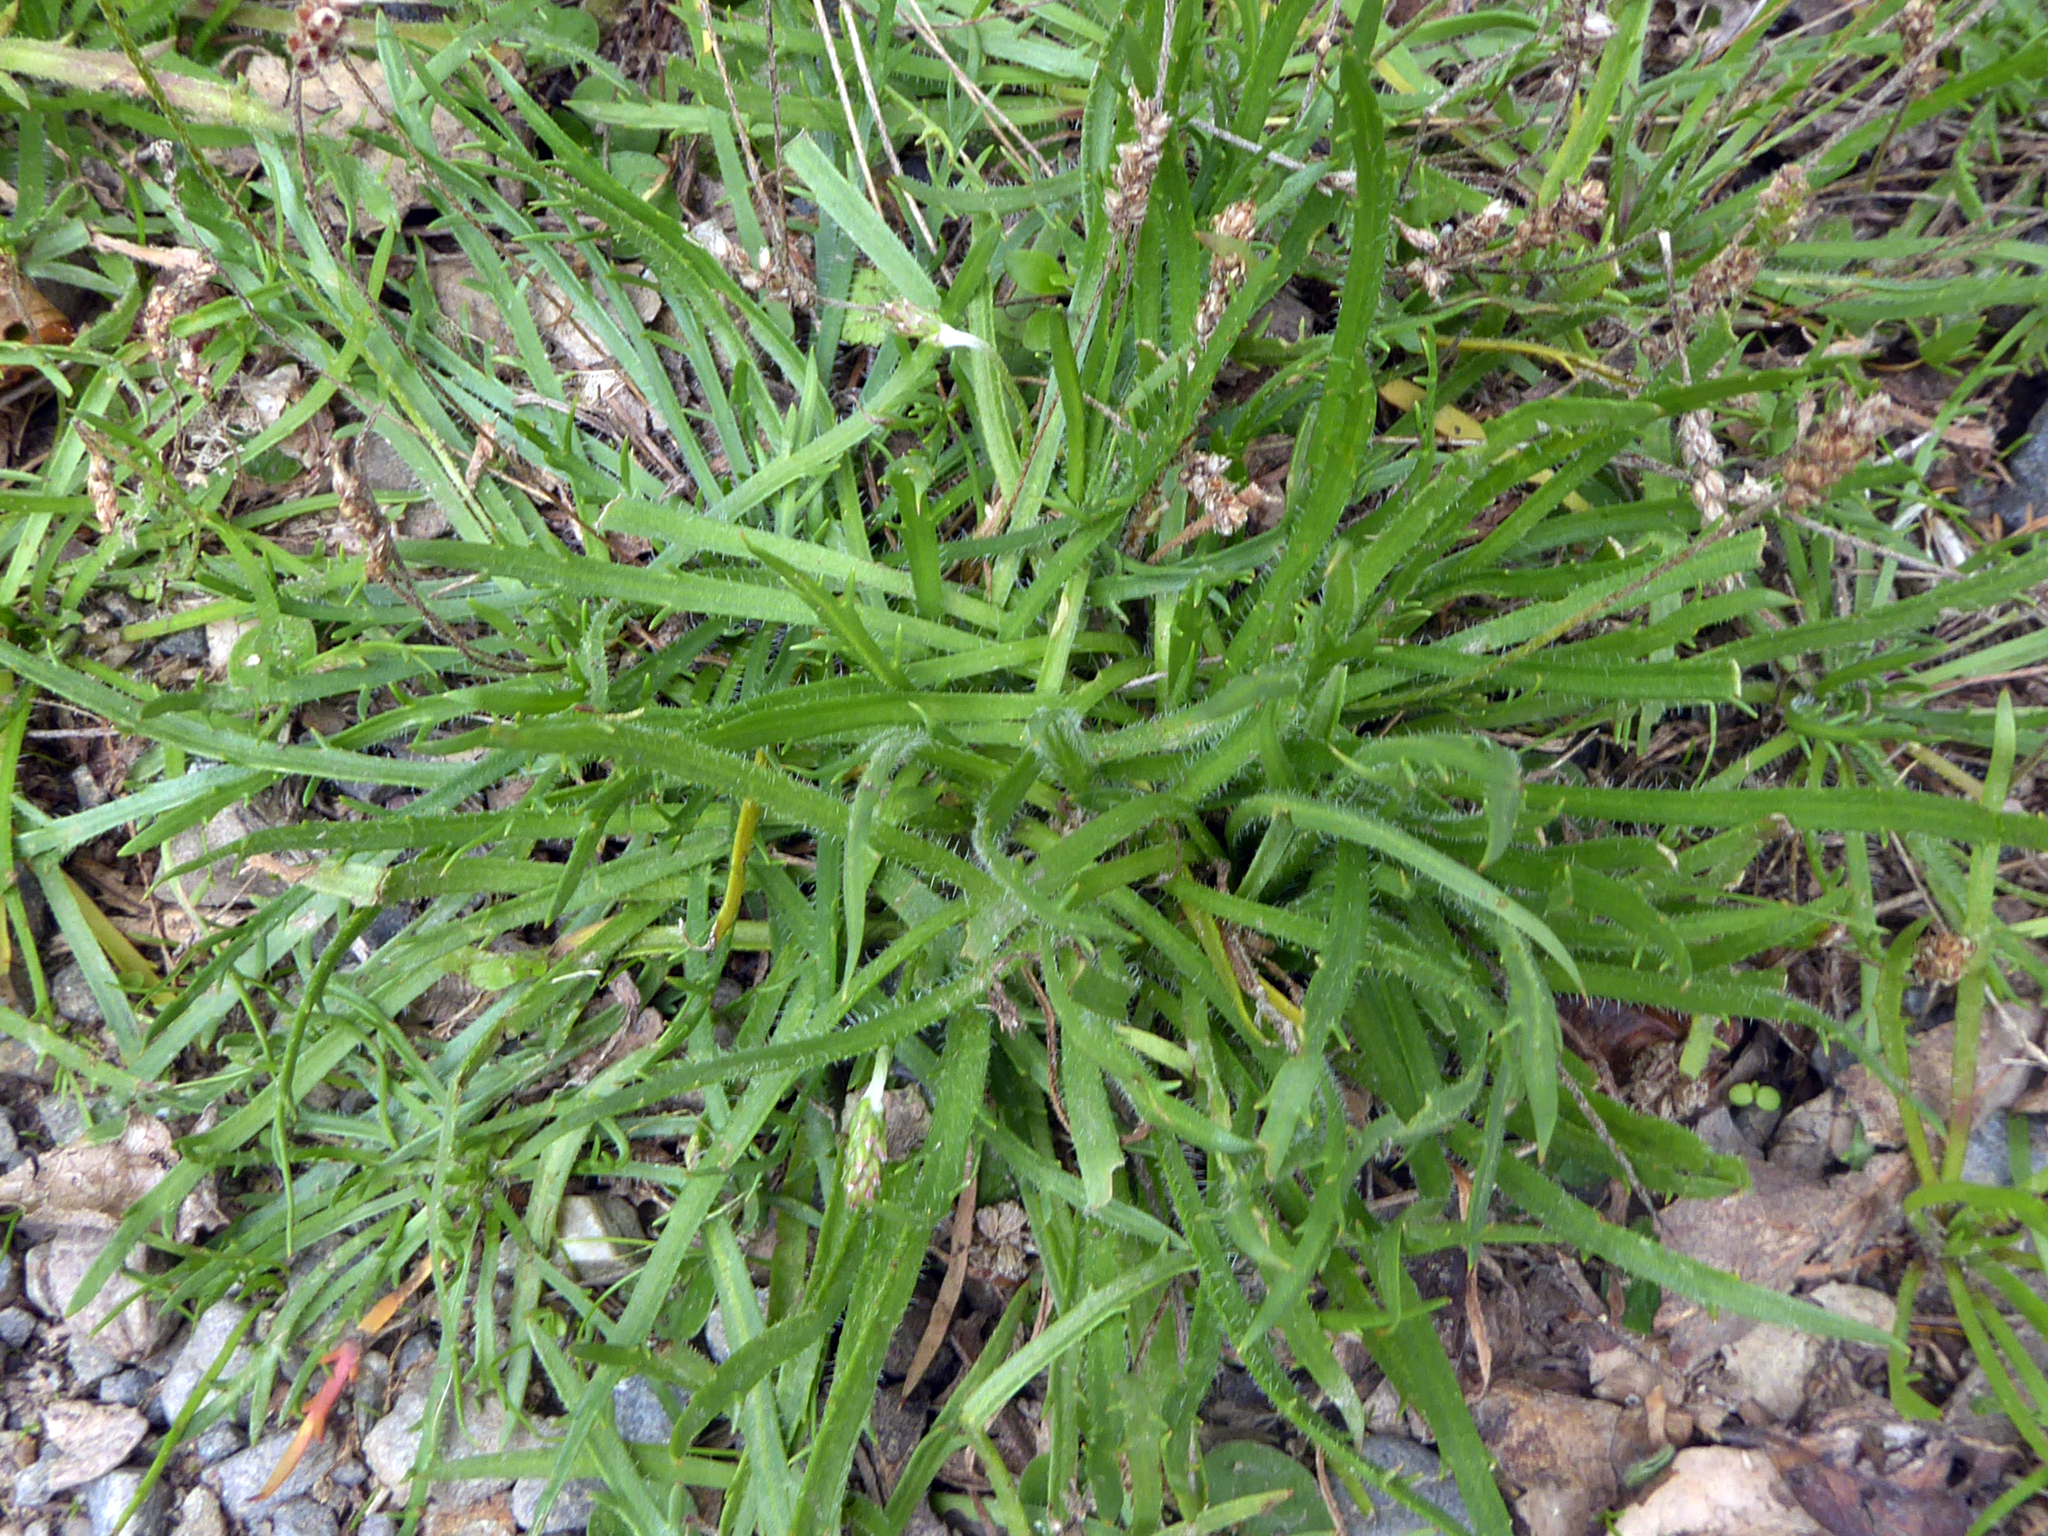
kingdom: Plantae
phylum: Tracheophyta
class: Magnoliopsida
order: Lamiales
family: Plantaginaceae
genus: Plantago
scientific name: Plantago coronopus
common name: Buck's-horn plantain
